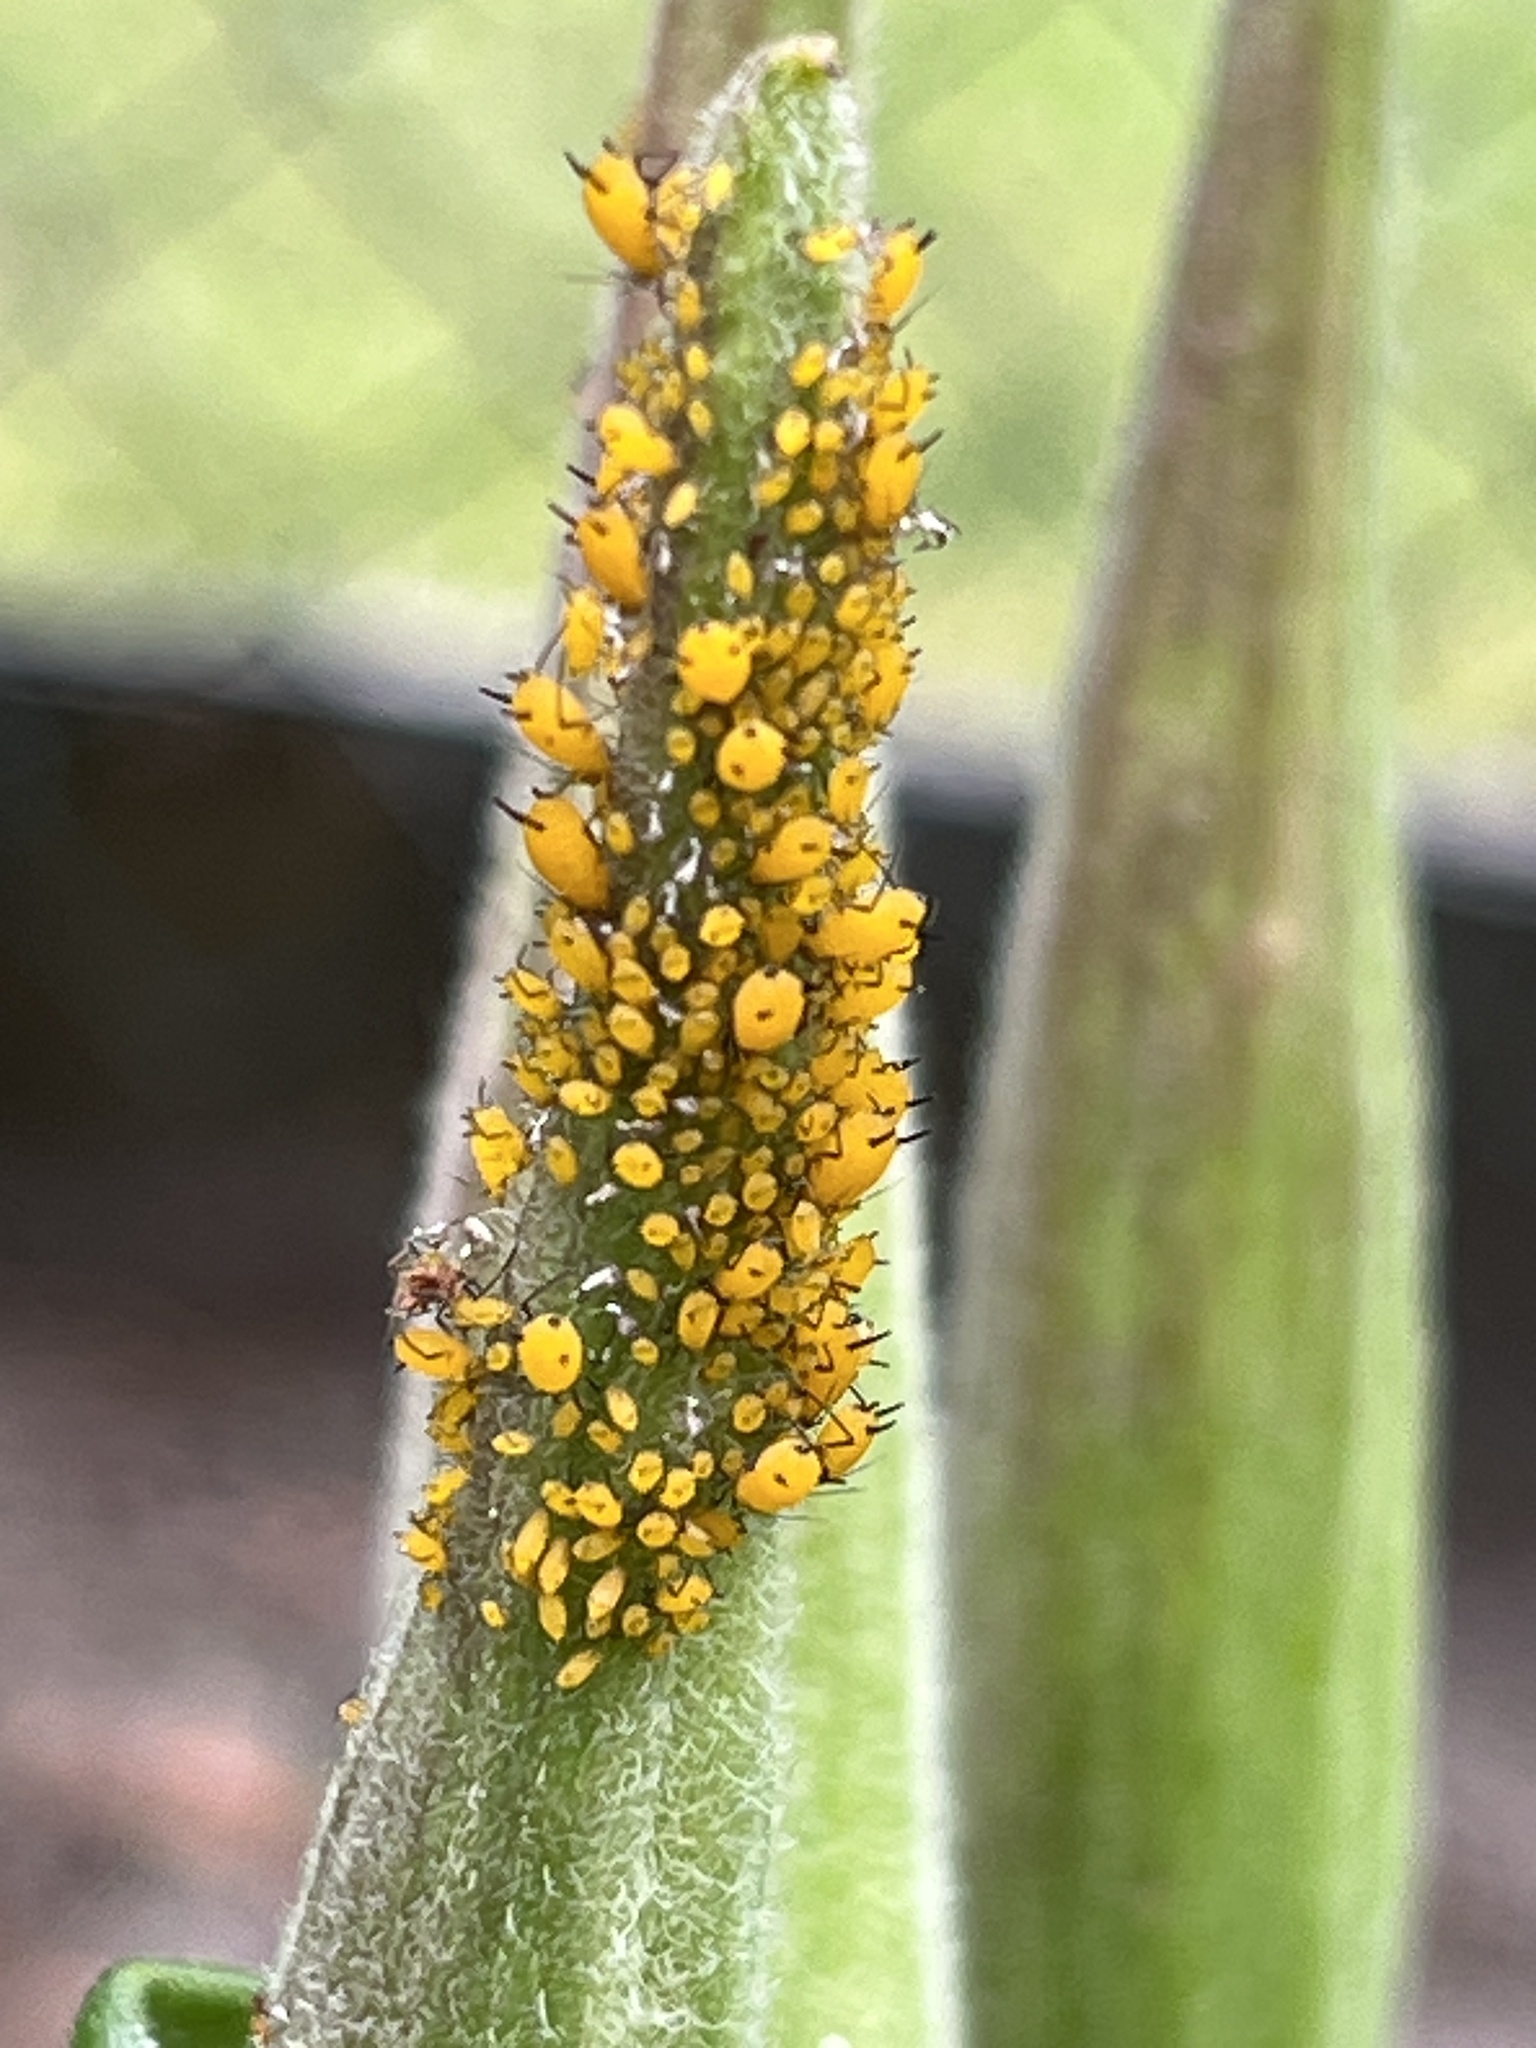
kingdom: Animalia
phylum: Arthropoda
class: Insecta
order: Hemiptera
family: Aphididae
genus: Aphis
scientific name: Aphis nerii
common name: Oleander aphid
